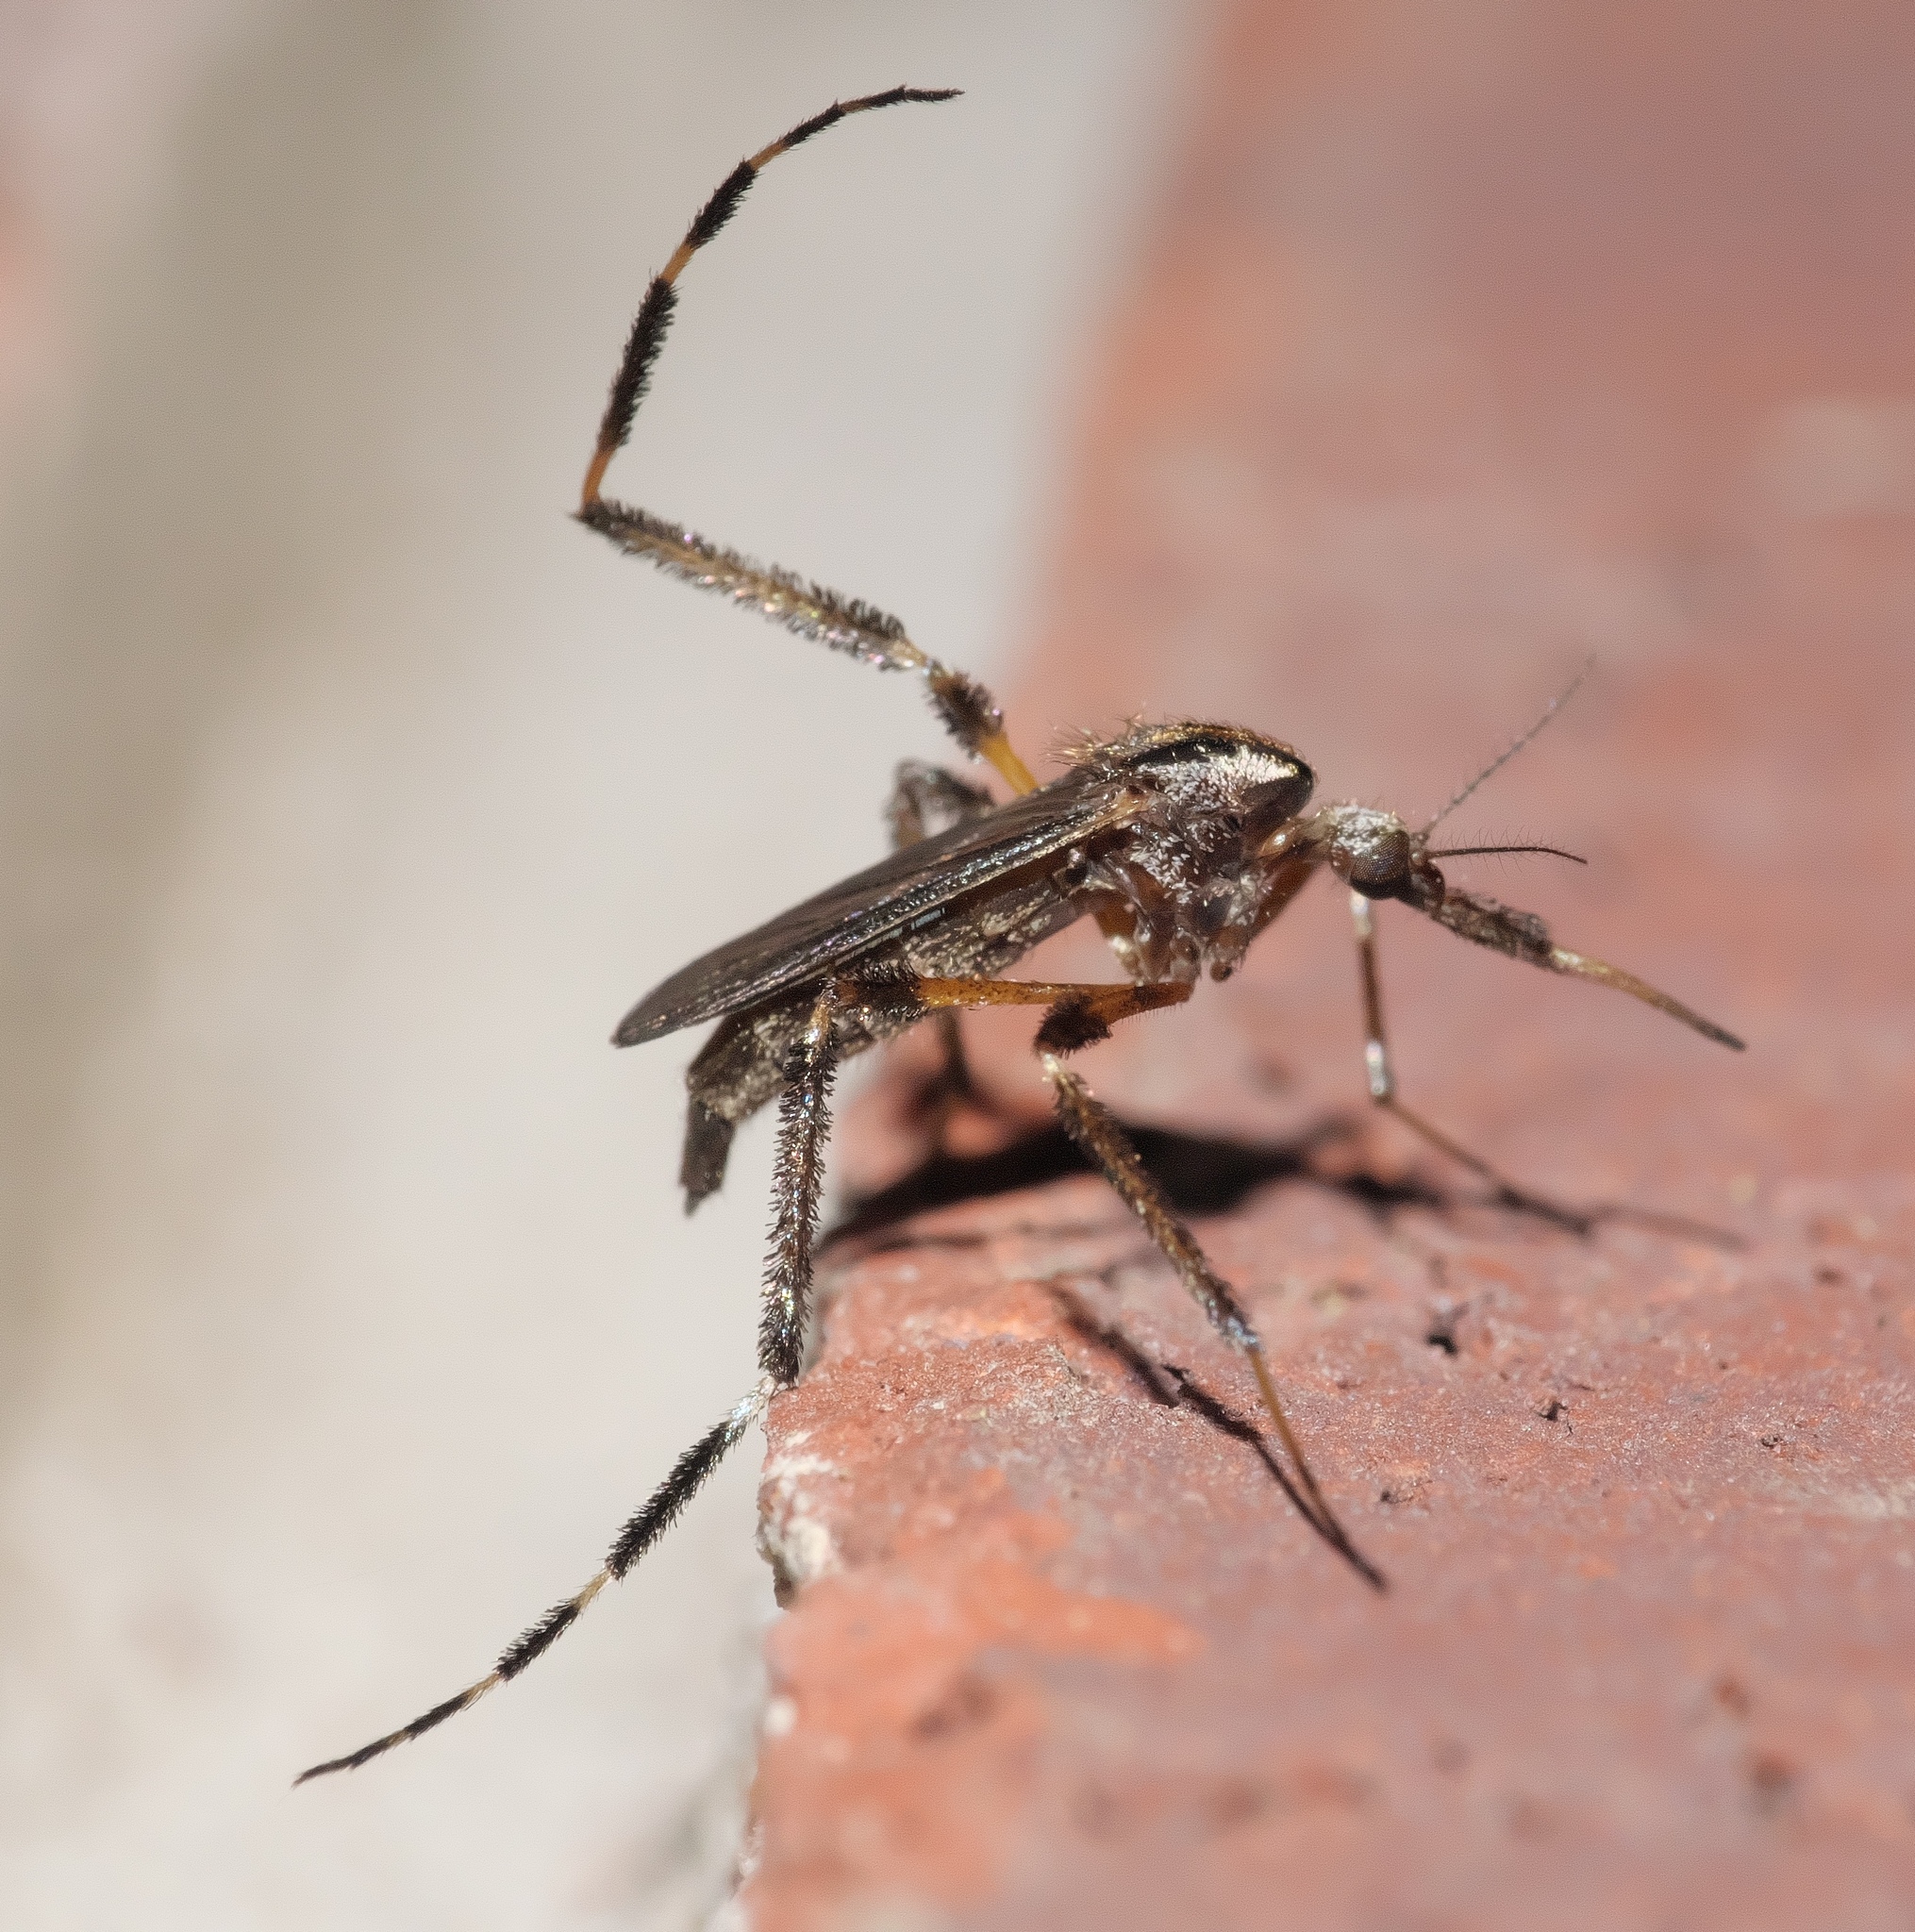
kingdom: Animalia
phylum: Arthropoda
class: Insecta
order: Diptera
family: Culicidae
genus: Psorophora
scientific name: Psorophora ciliata
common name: Gallinipper
